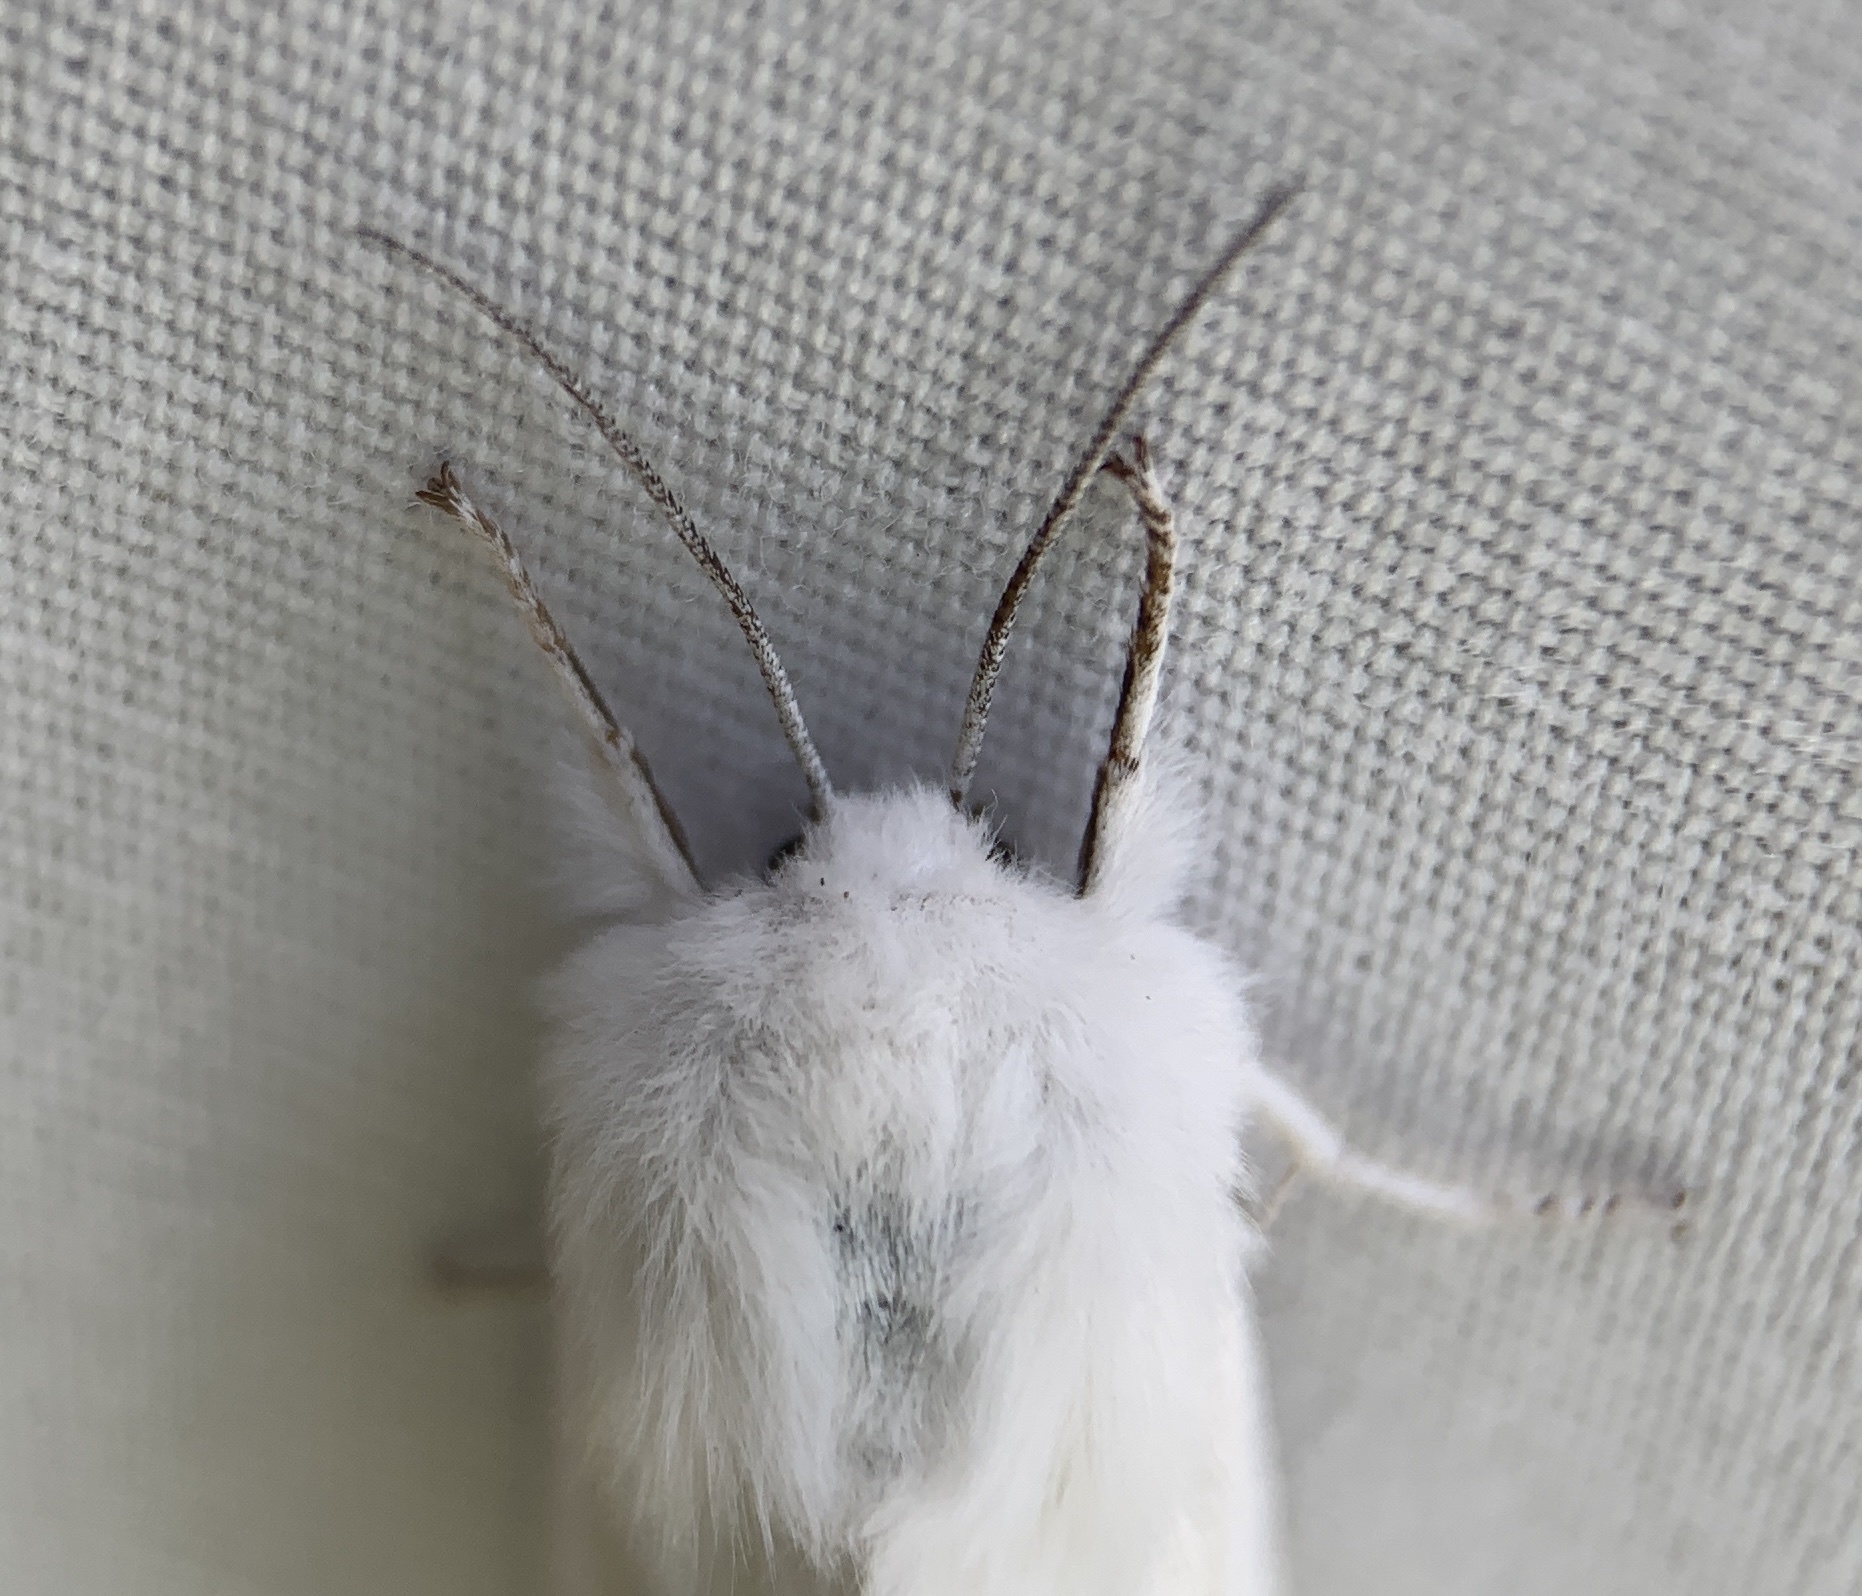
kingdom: Animalia
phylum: Arthropoda
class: Insecta
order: Lepidoptera
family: Erebidae
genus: Spilosoma
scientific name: Spilosoma congrua
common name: Agreeable tiger moth
